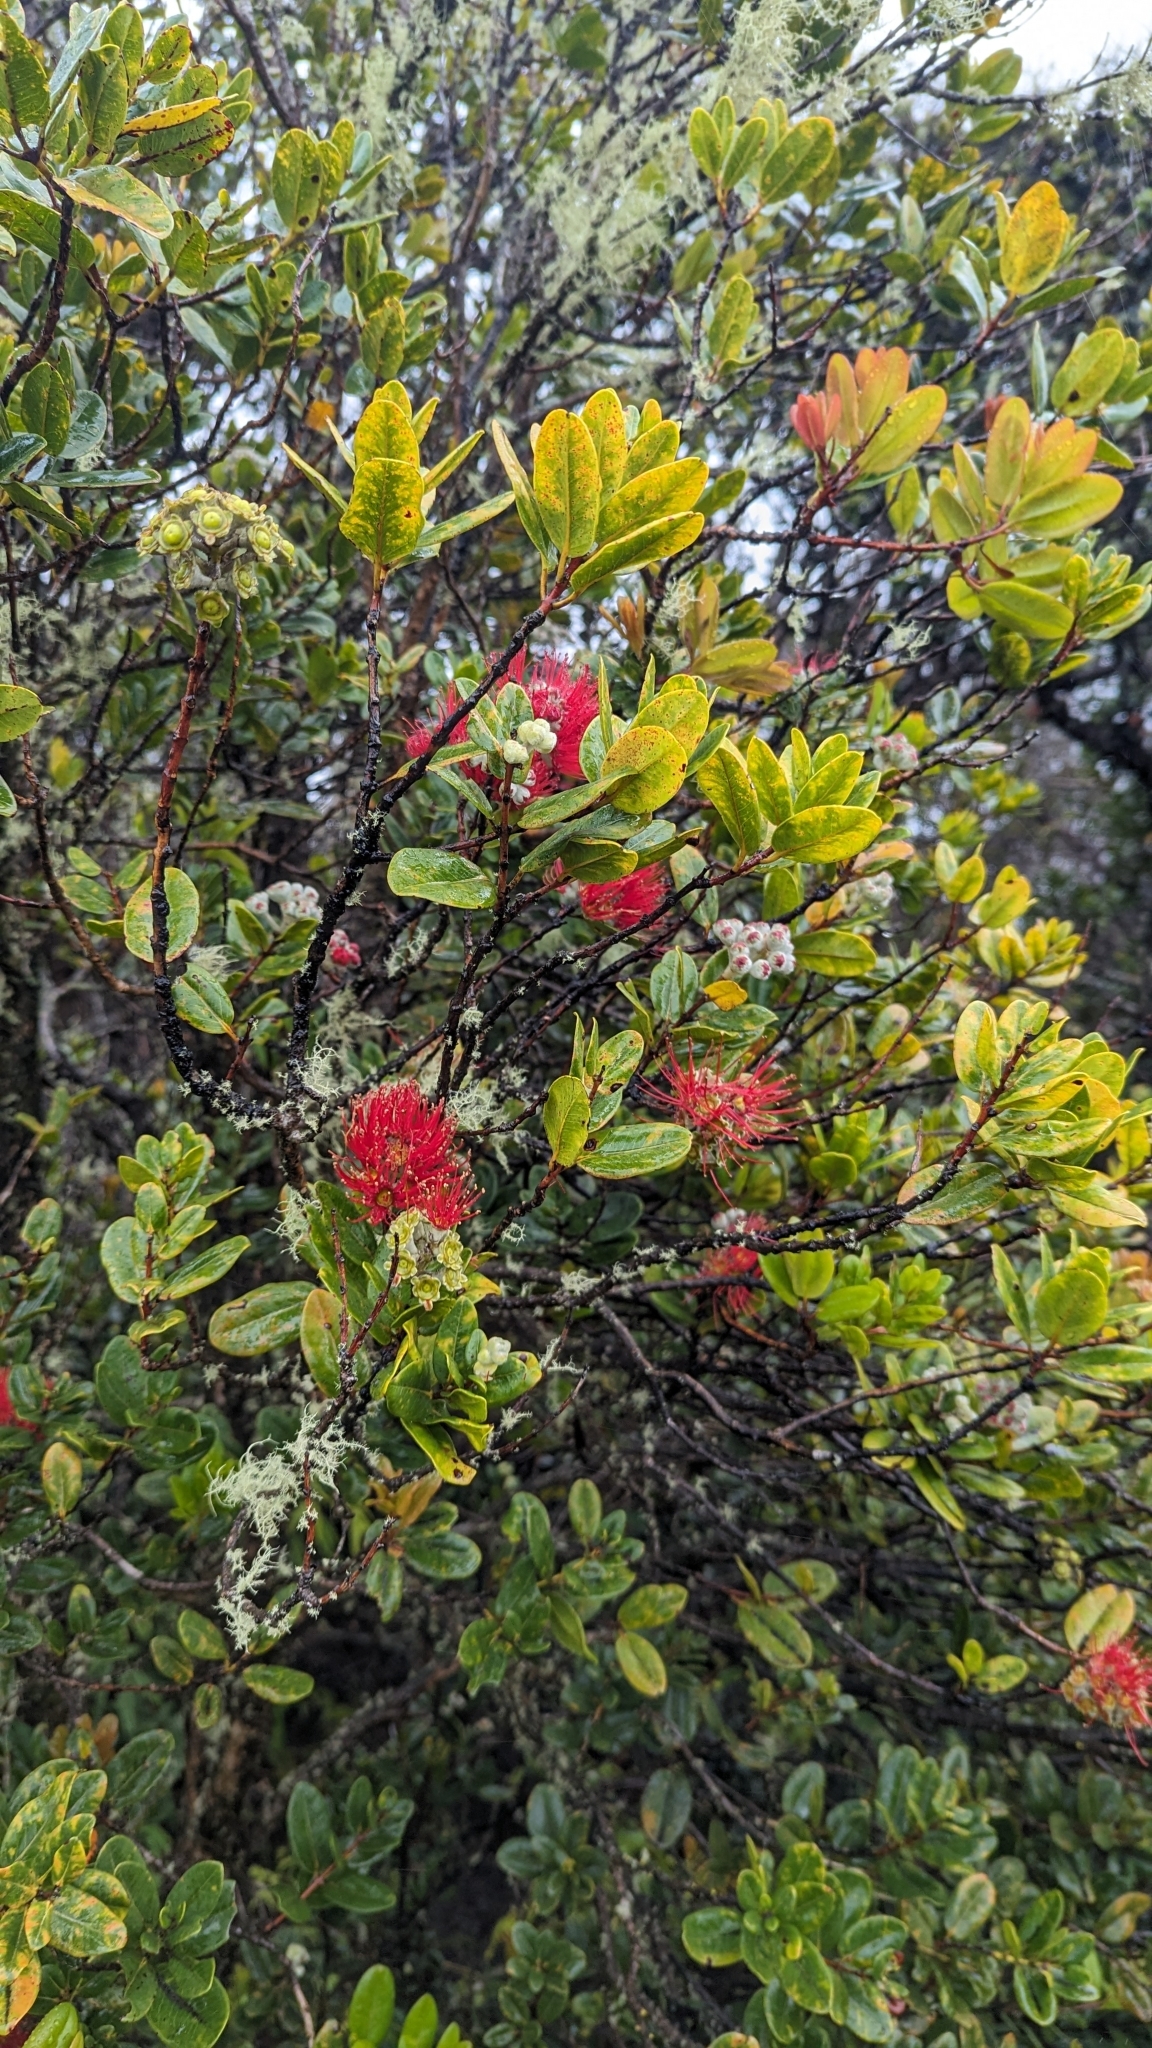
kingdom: Plantae
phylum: Tracheophyta
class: Magnoliopsida
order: Myrtales
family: Myrtaceae
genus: Metrosideros
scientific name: Metrosideros polymorpha
